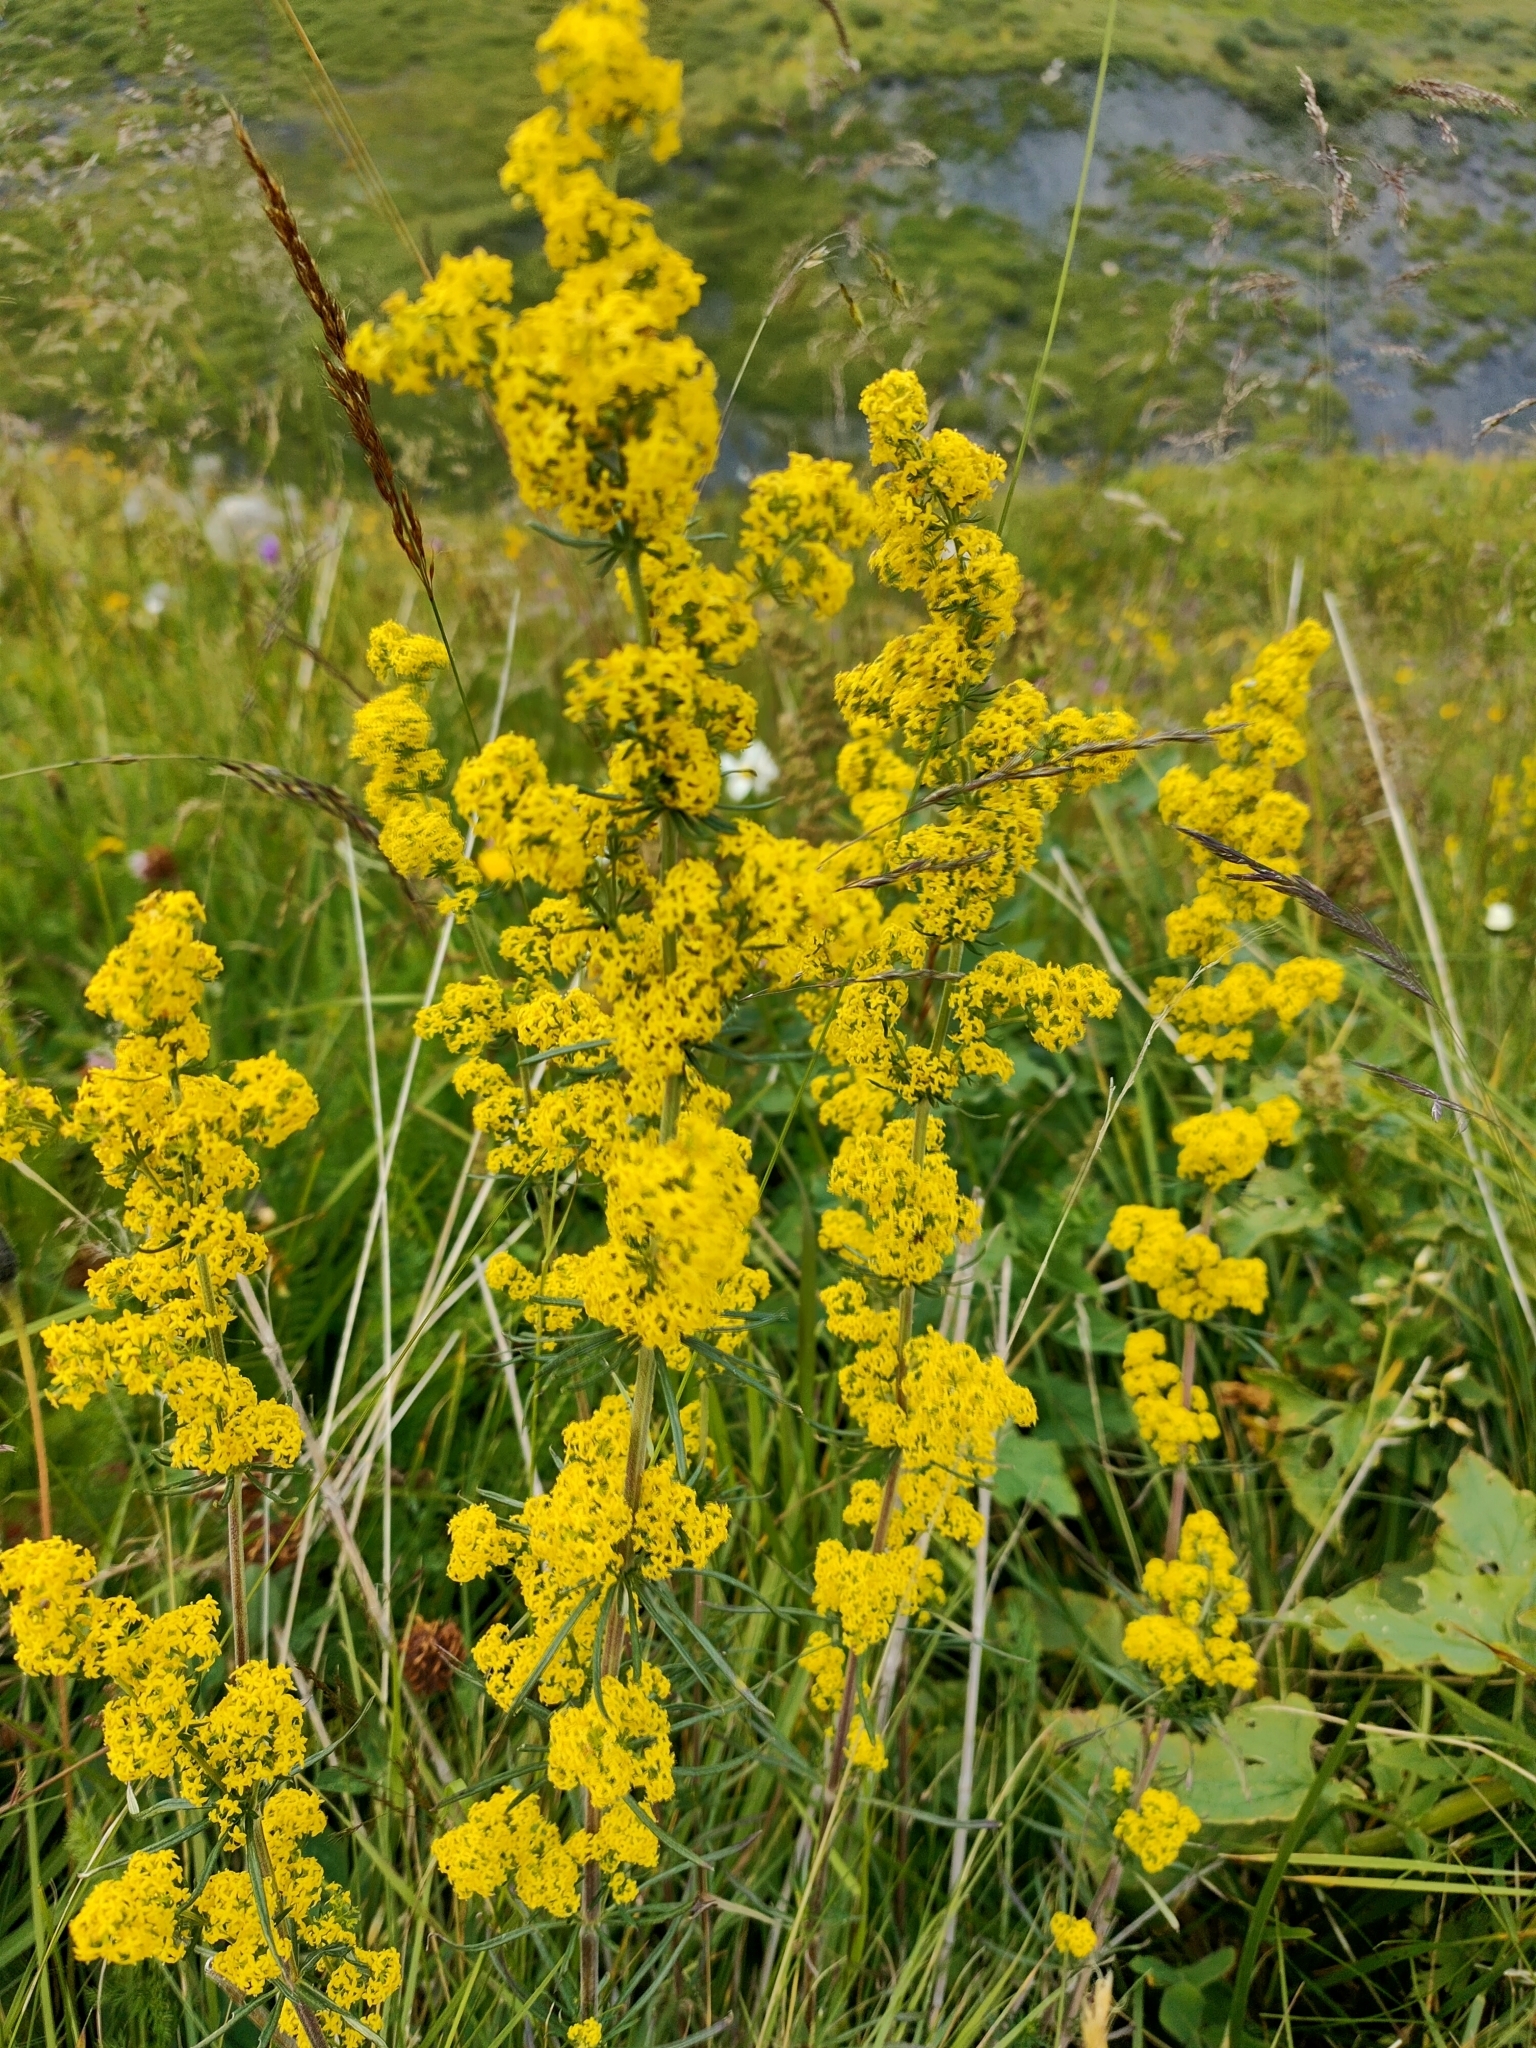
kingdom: Plantae
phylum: Tracheophyta
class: Magnoliopsida
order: Gentianales
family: Rubiaceae
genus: Galium
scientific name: Galium verum
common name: Lady's bedstraw
